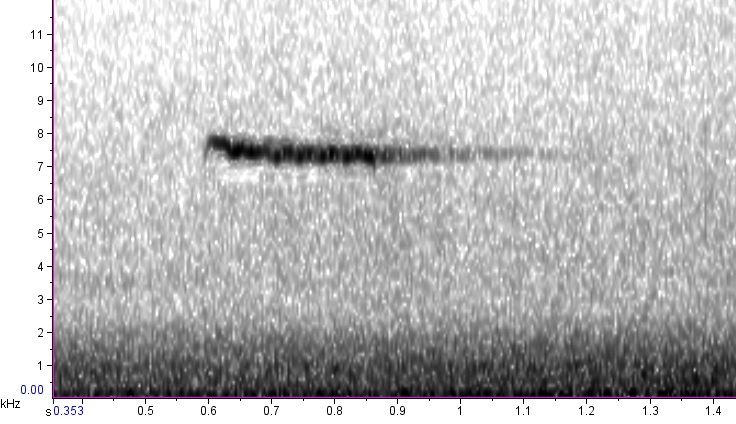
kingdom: Animalia
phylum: Chordata
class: Aves
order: Passeriformes
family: Certhiidae
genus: Certhia
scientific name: Certhia americana
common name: Brown creeper
